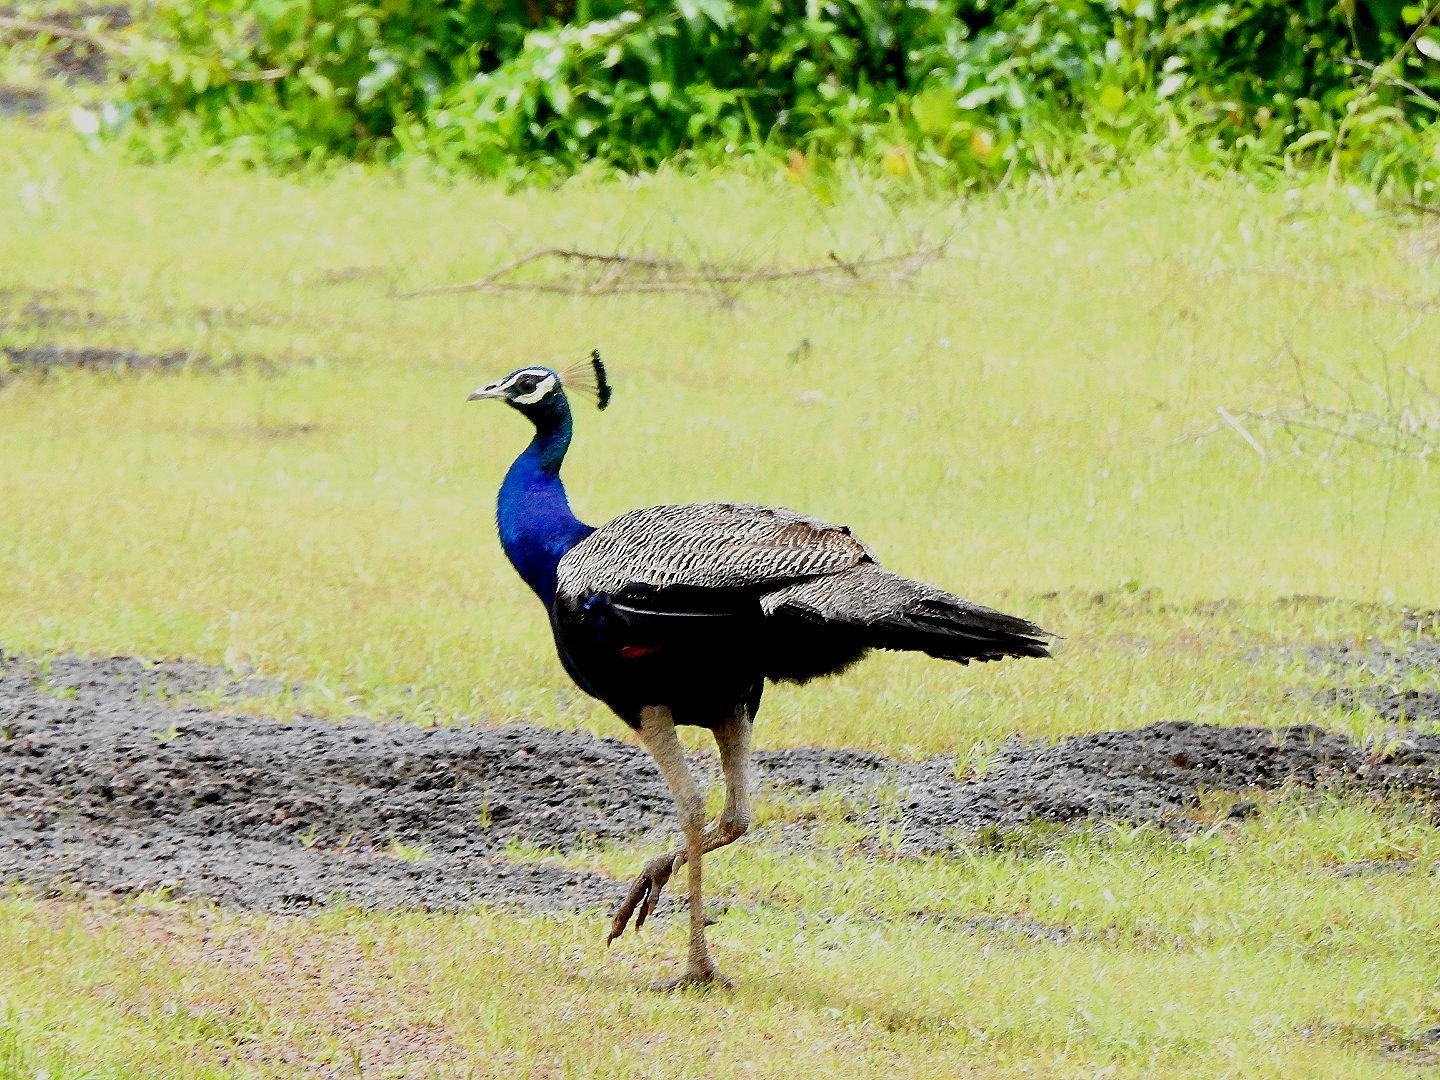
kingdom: Animalia
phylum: Chordata
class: Aves
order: Galliformes
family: Phasianidae
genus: Pavo
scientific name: Pavo cristatus
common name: Indian peafowl
